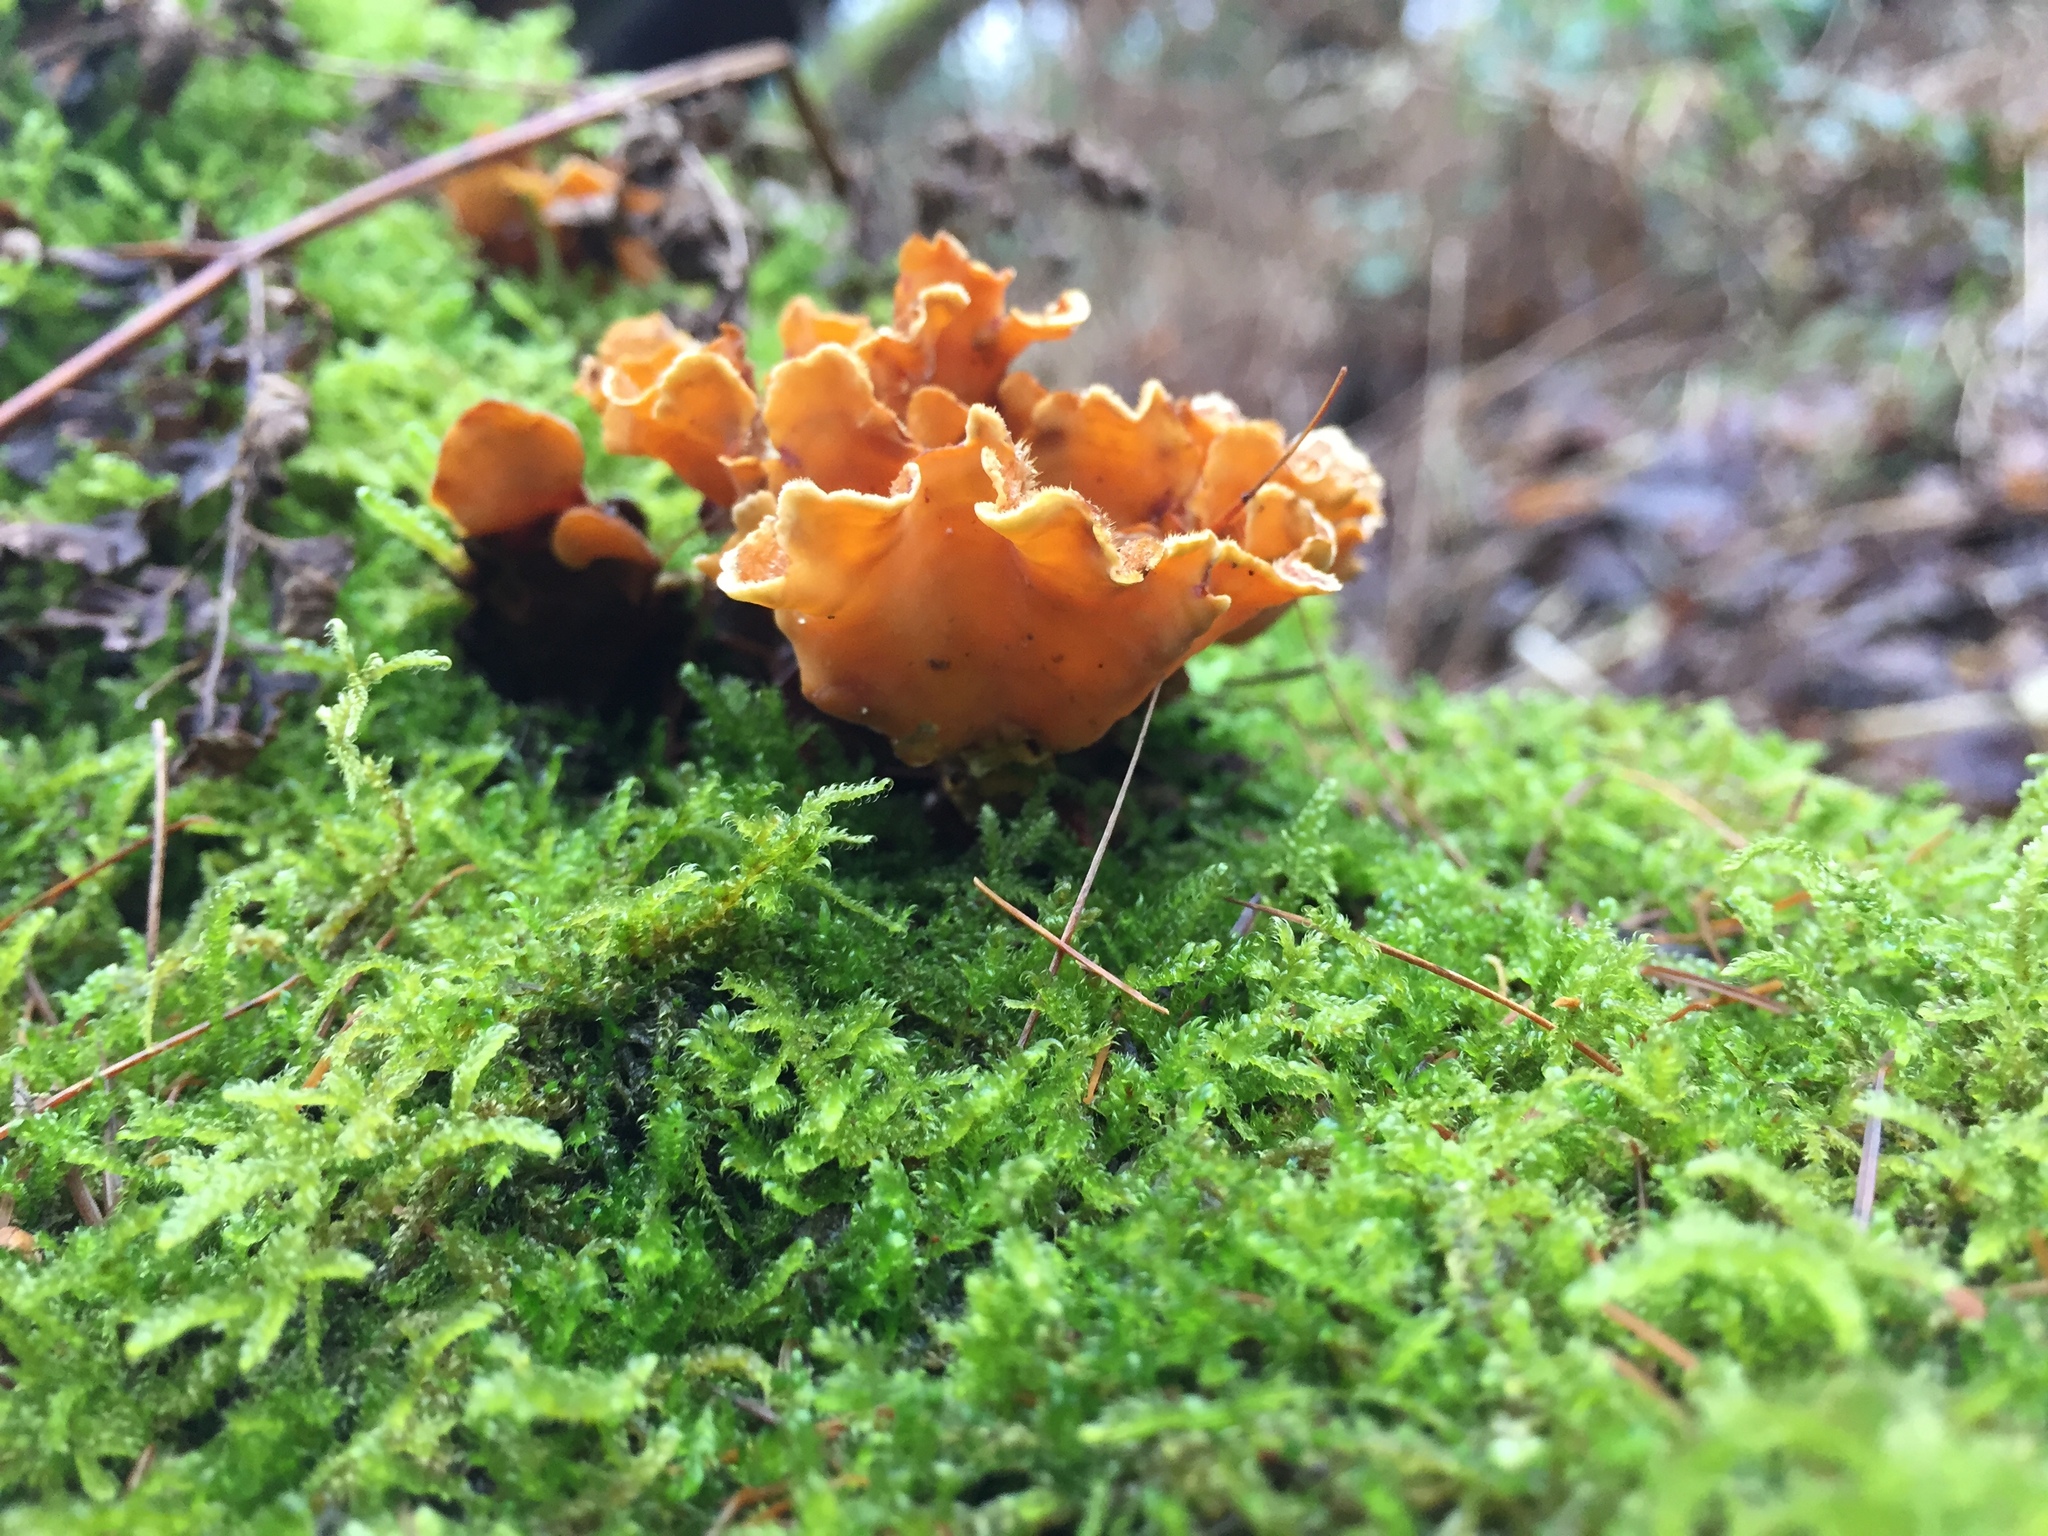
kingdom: Fungi
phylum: Basidiomycota
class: Agaricomycetes
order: Russulales
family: Stereaceae
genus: Stereum
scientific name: Stereum hirsutum
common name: Hairy curtain crust
